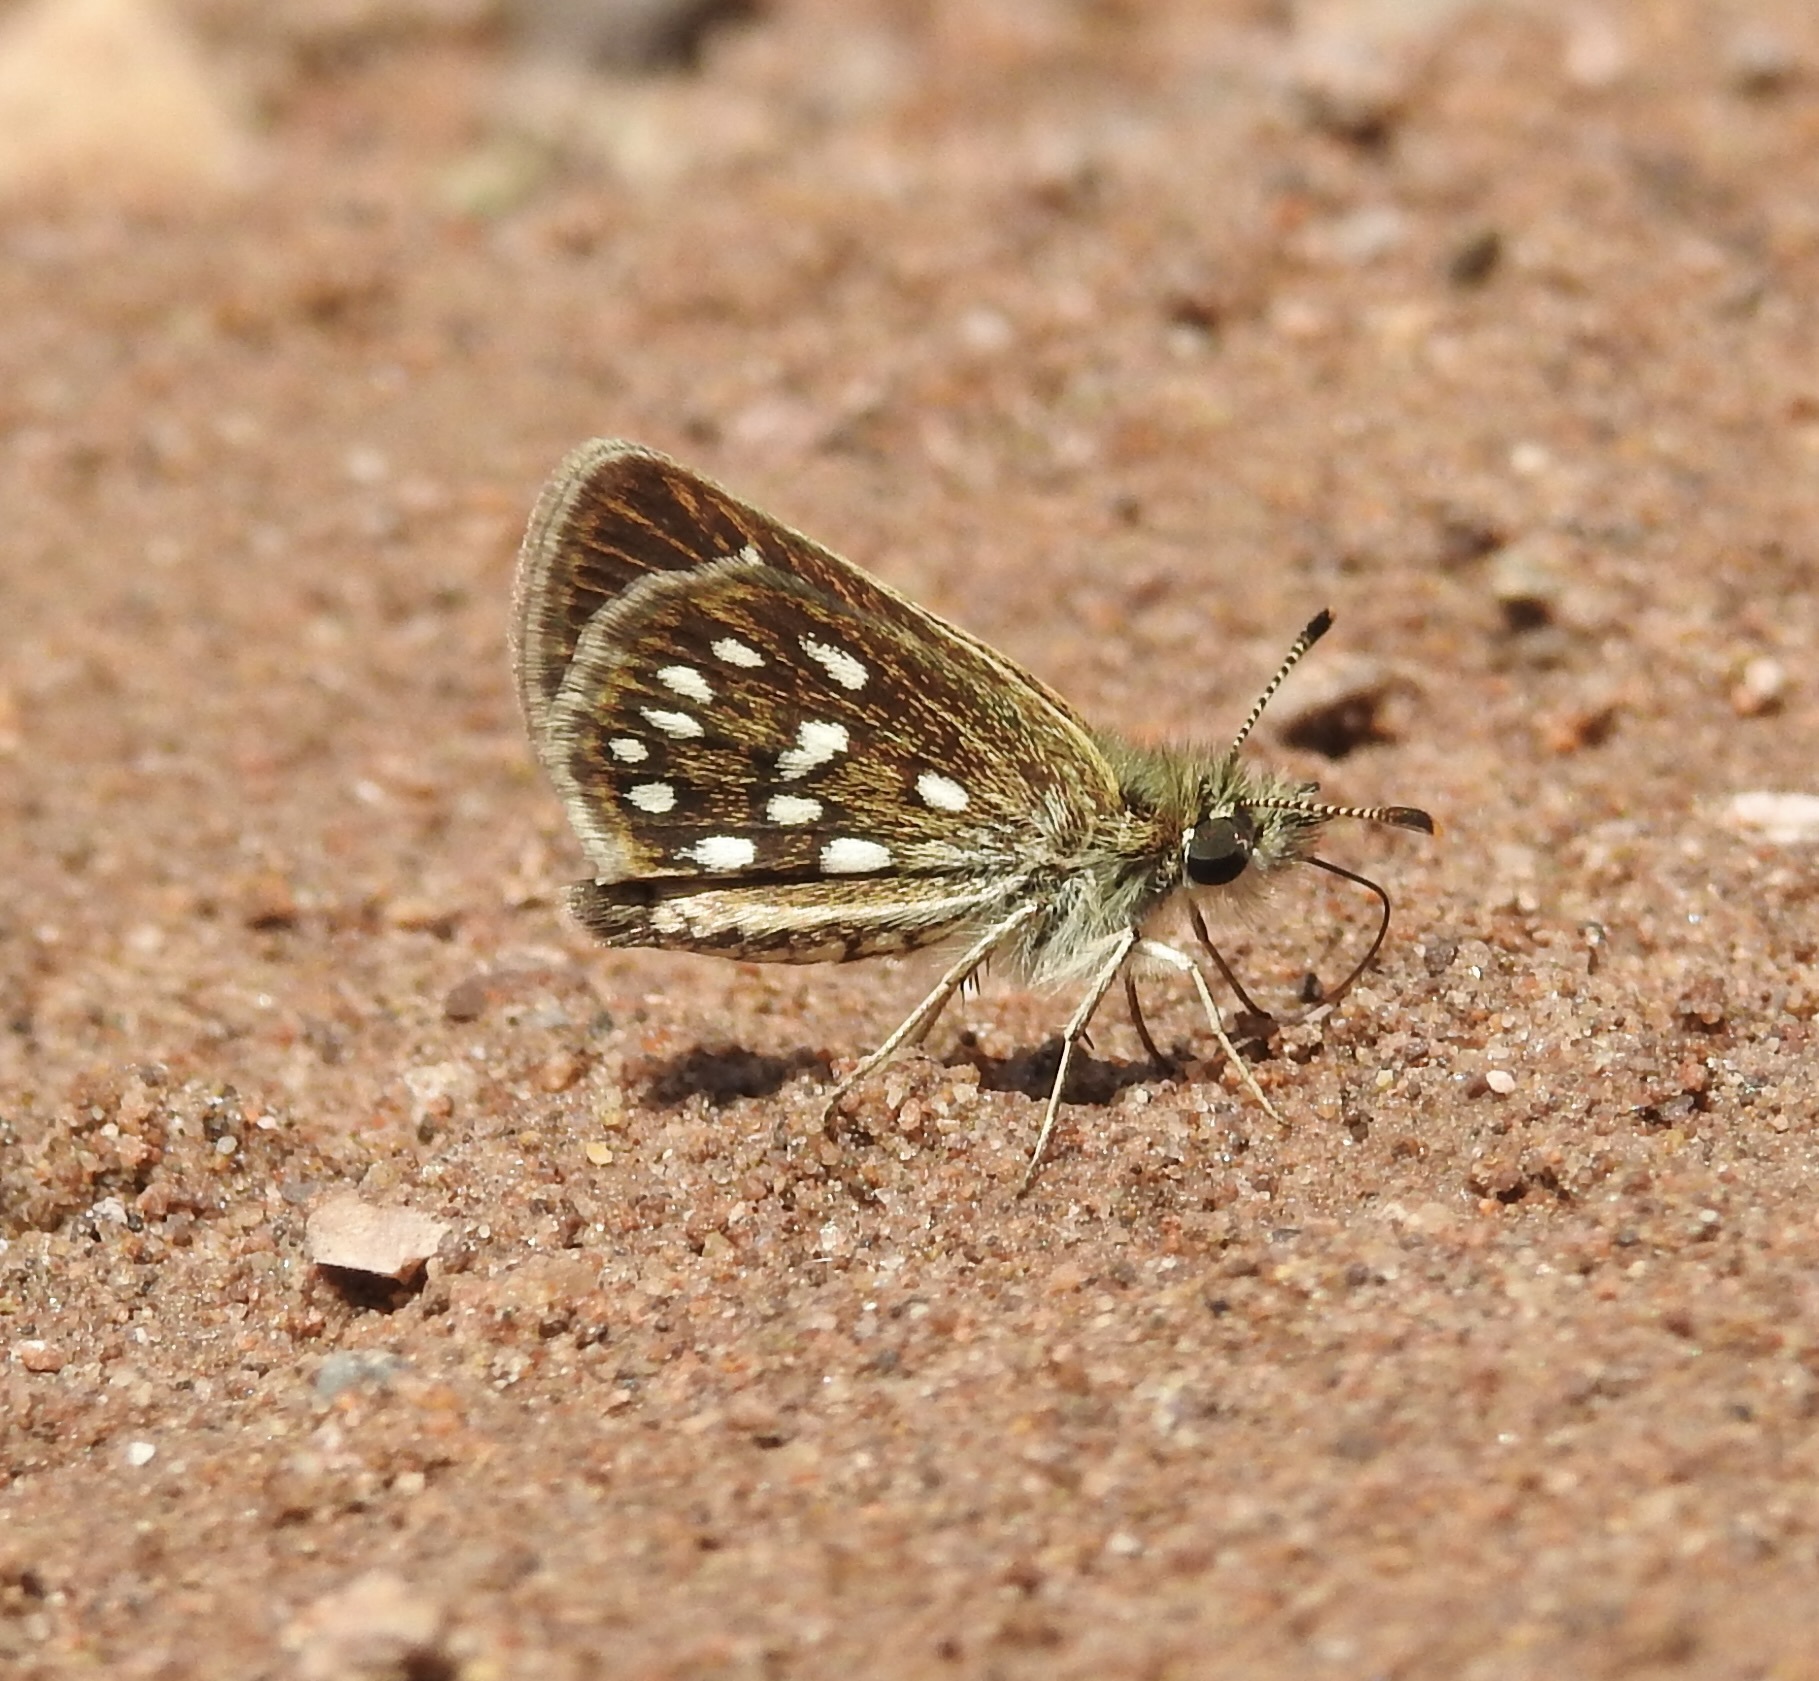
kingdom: Animalia
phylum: Arthropoda
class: Insecta
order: Lepidoptera
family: Hesperiidae
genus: Piruna
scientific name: Piruna aea
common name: Many-spotted skipperling
